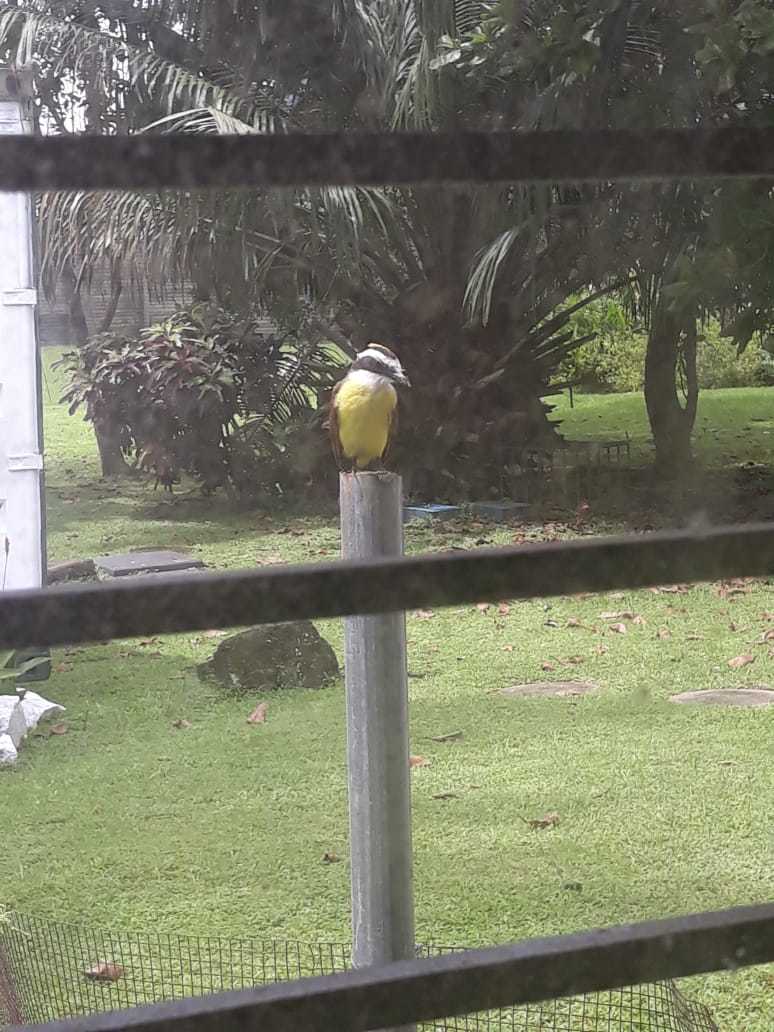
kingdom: Animalia
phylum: Chordata
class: Aves
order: Passeriformes
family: Tyrannidae
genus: Pitangus
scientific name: Pitangus sulphuratus
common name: Great kiskadee
